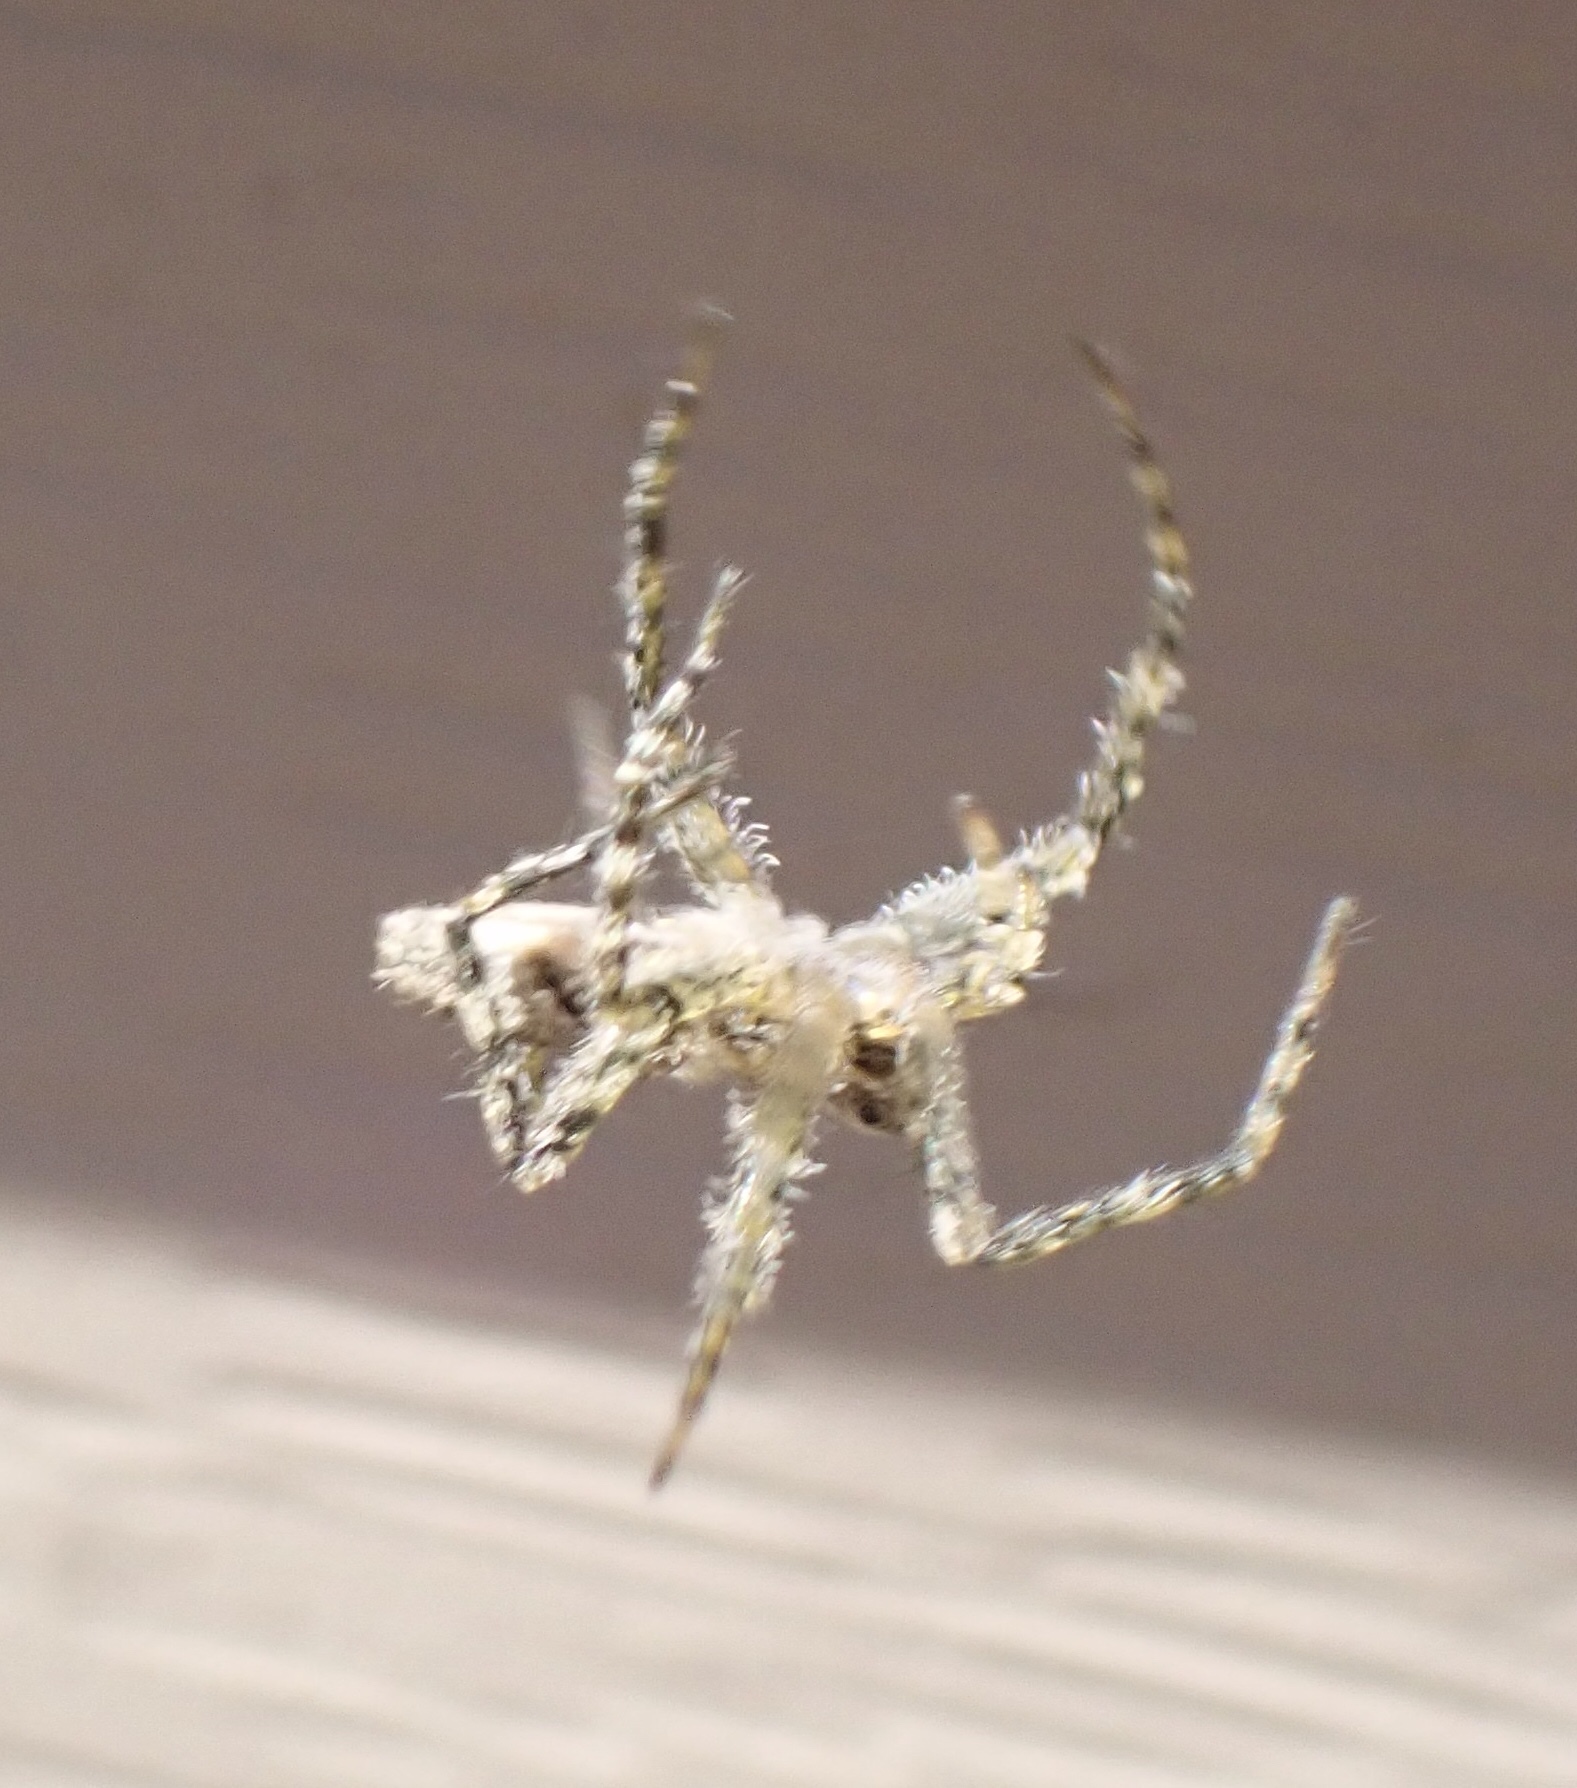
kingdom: Animalia
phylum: Arthropoda
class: Arachnida
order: Araneae
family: Pisauridae
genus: Dolomedes
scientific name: Dolomedes albineus
